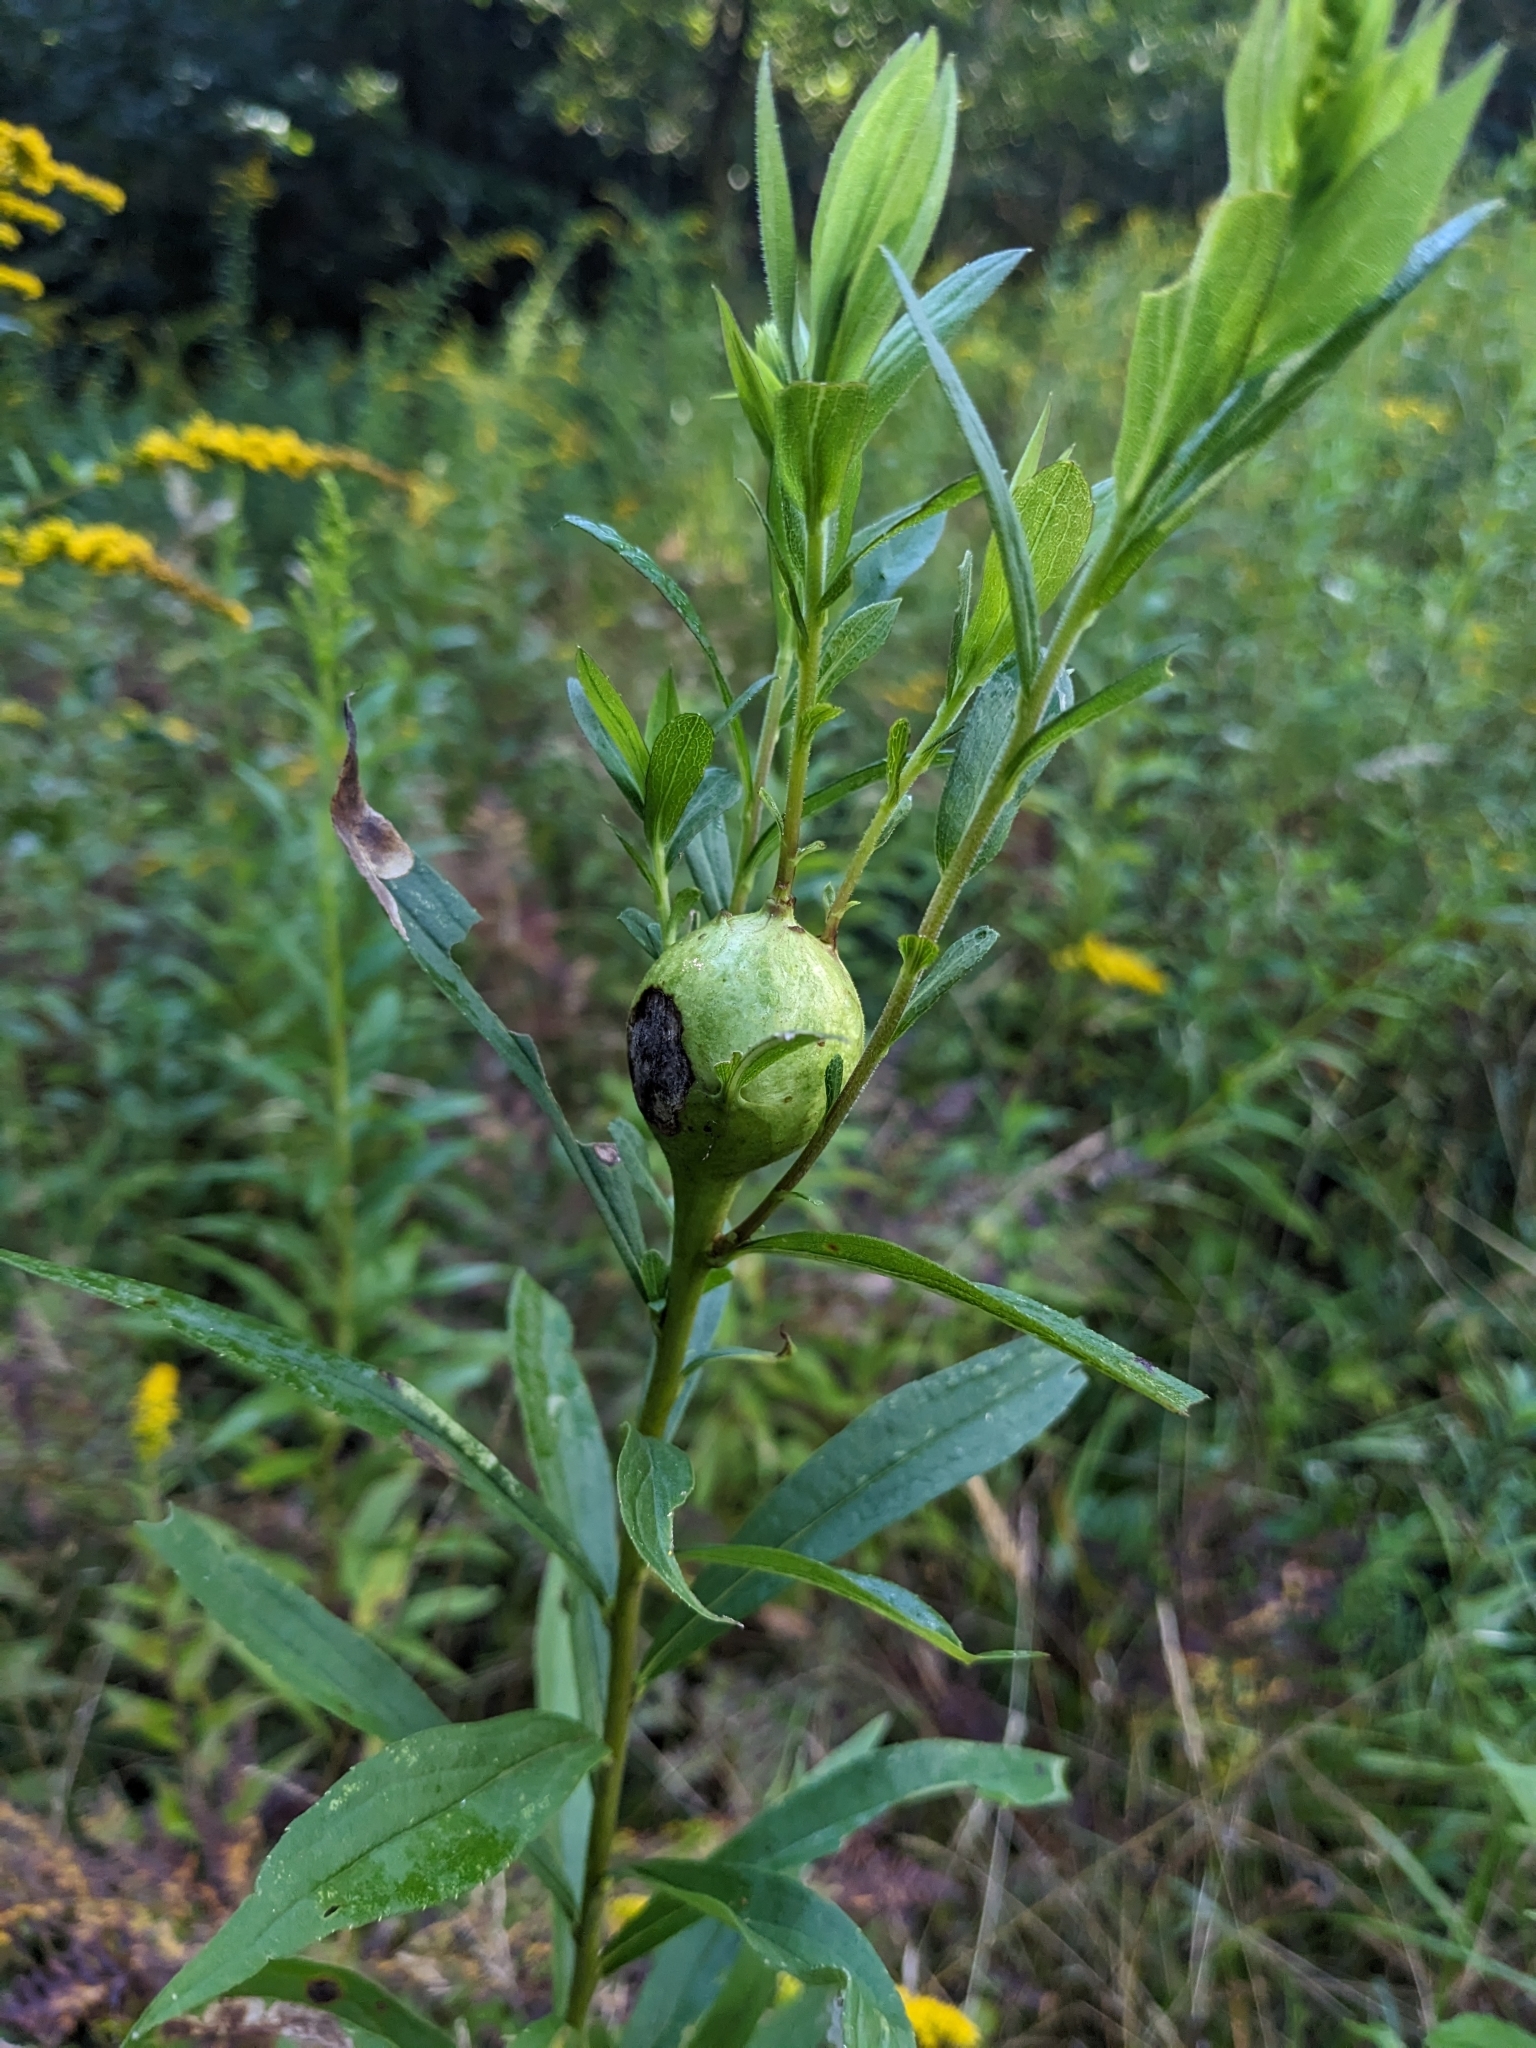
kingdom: Animalia
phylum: Arthropoda
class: Insecta
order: Diptera
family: Tephritidae
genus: Eurosta
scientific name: Eurosta solidaginis
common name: Goldenrod gall fly
